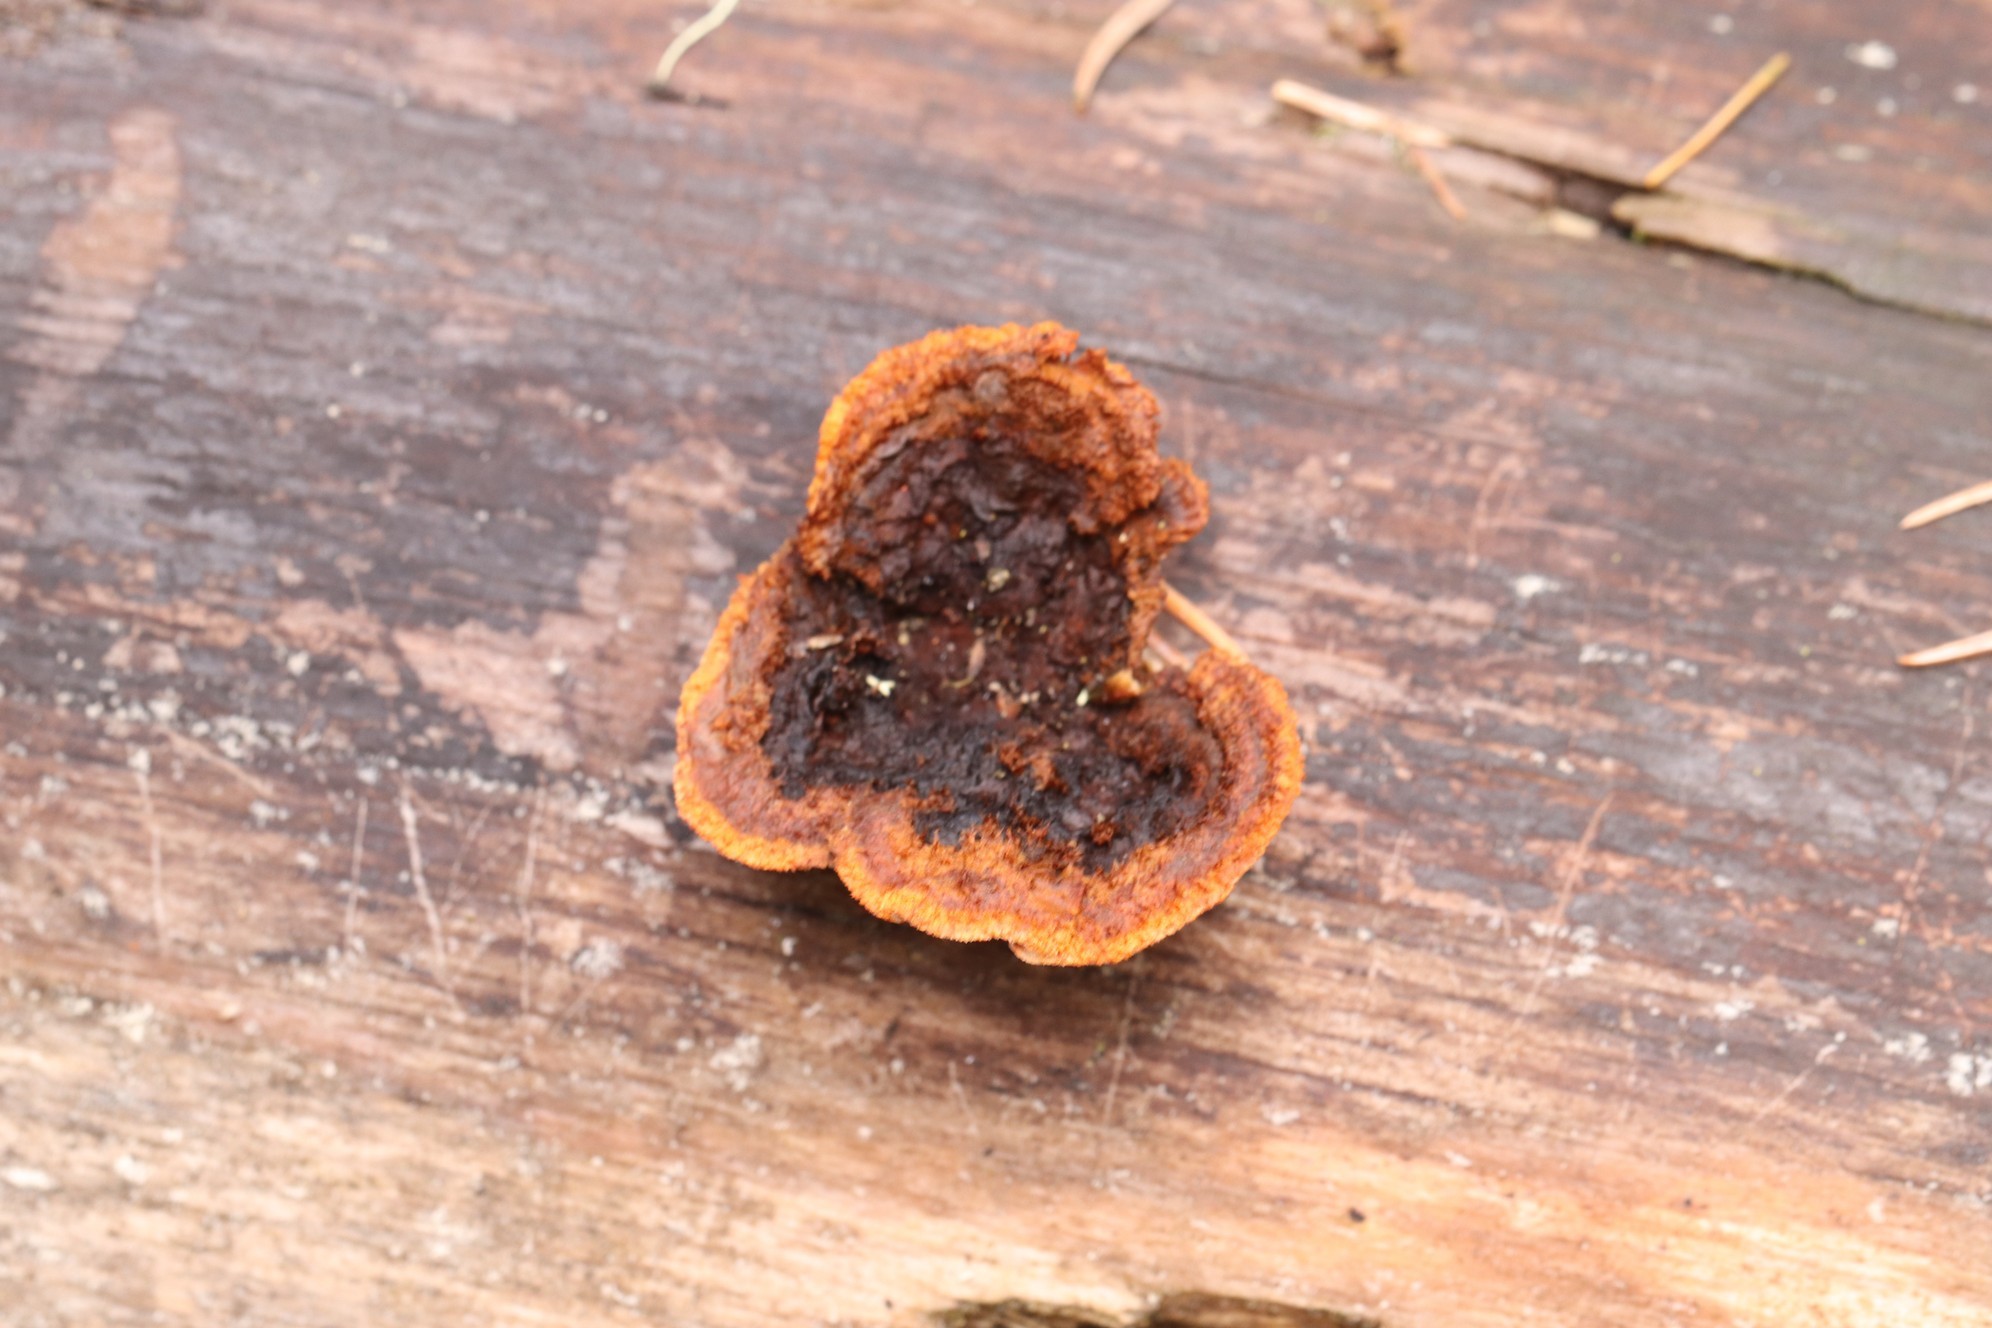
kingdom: Fungi
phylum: Basidiomycota
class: Agaricomycetes
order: Gloeophyllales
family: Gloeophyllaceae
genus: Gloeophyllum
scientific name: Gloeophyllum sepiarium
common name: Conifer mazegill
